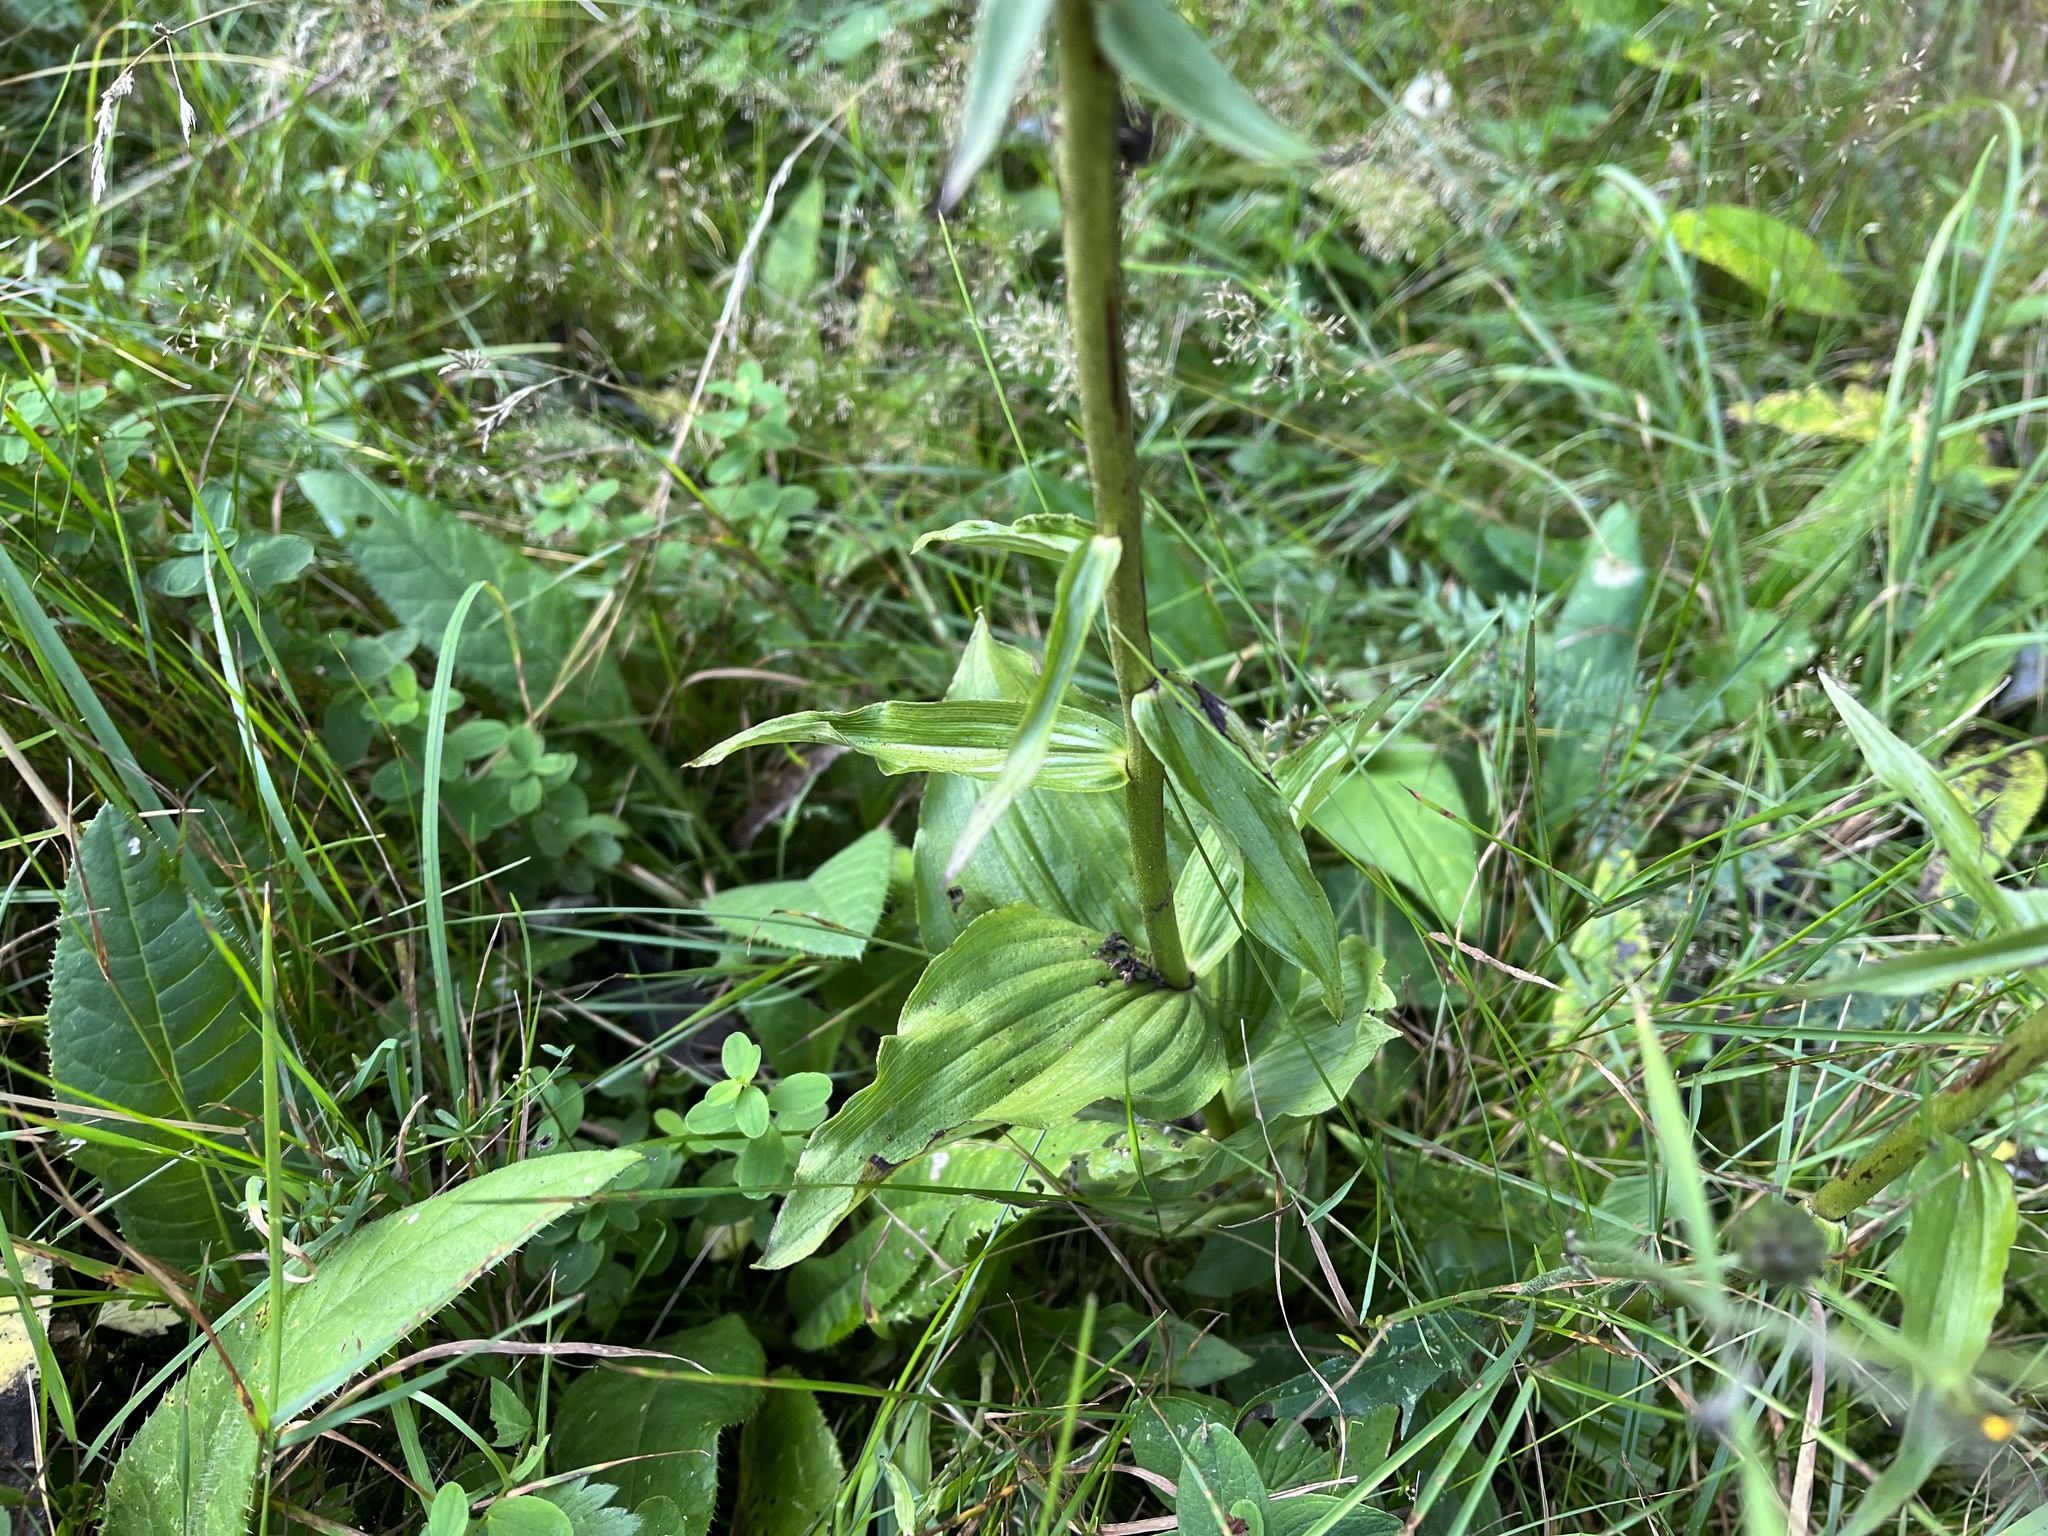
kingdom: Plantae
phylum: Tracheophyta
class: Liliopsida
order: Asparagales
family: Orchidaceae
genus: Epipactis
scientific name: Epipactis helleborine
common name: Broad-leaved helleborine
